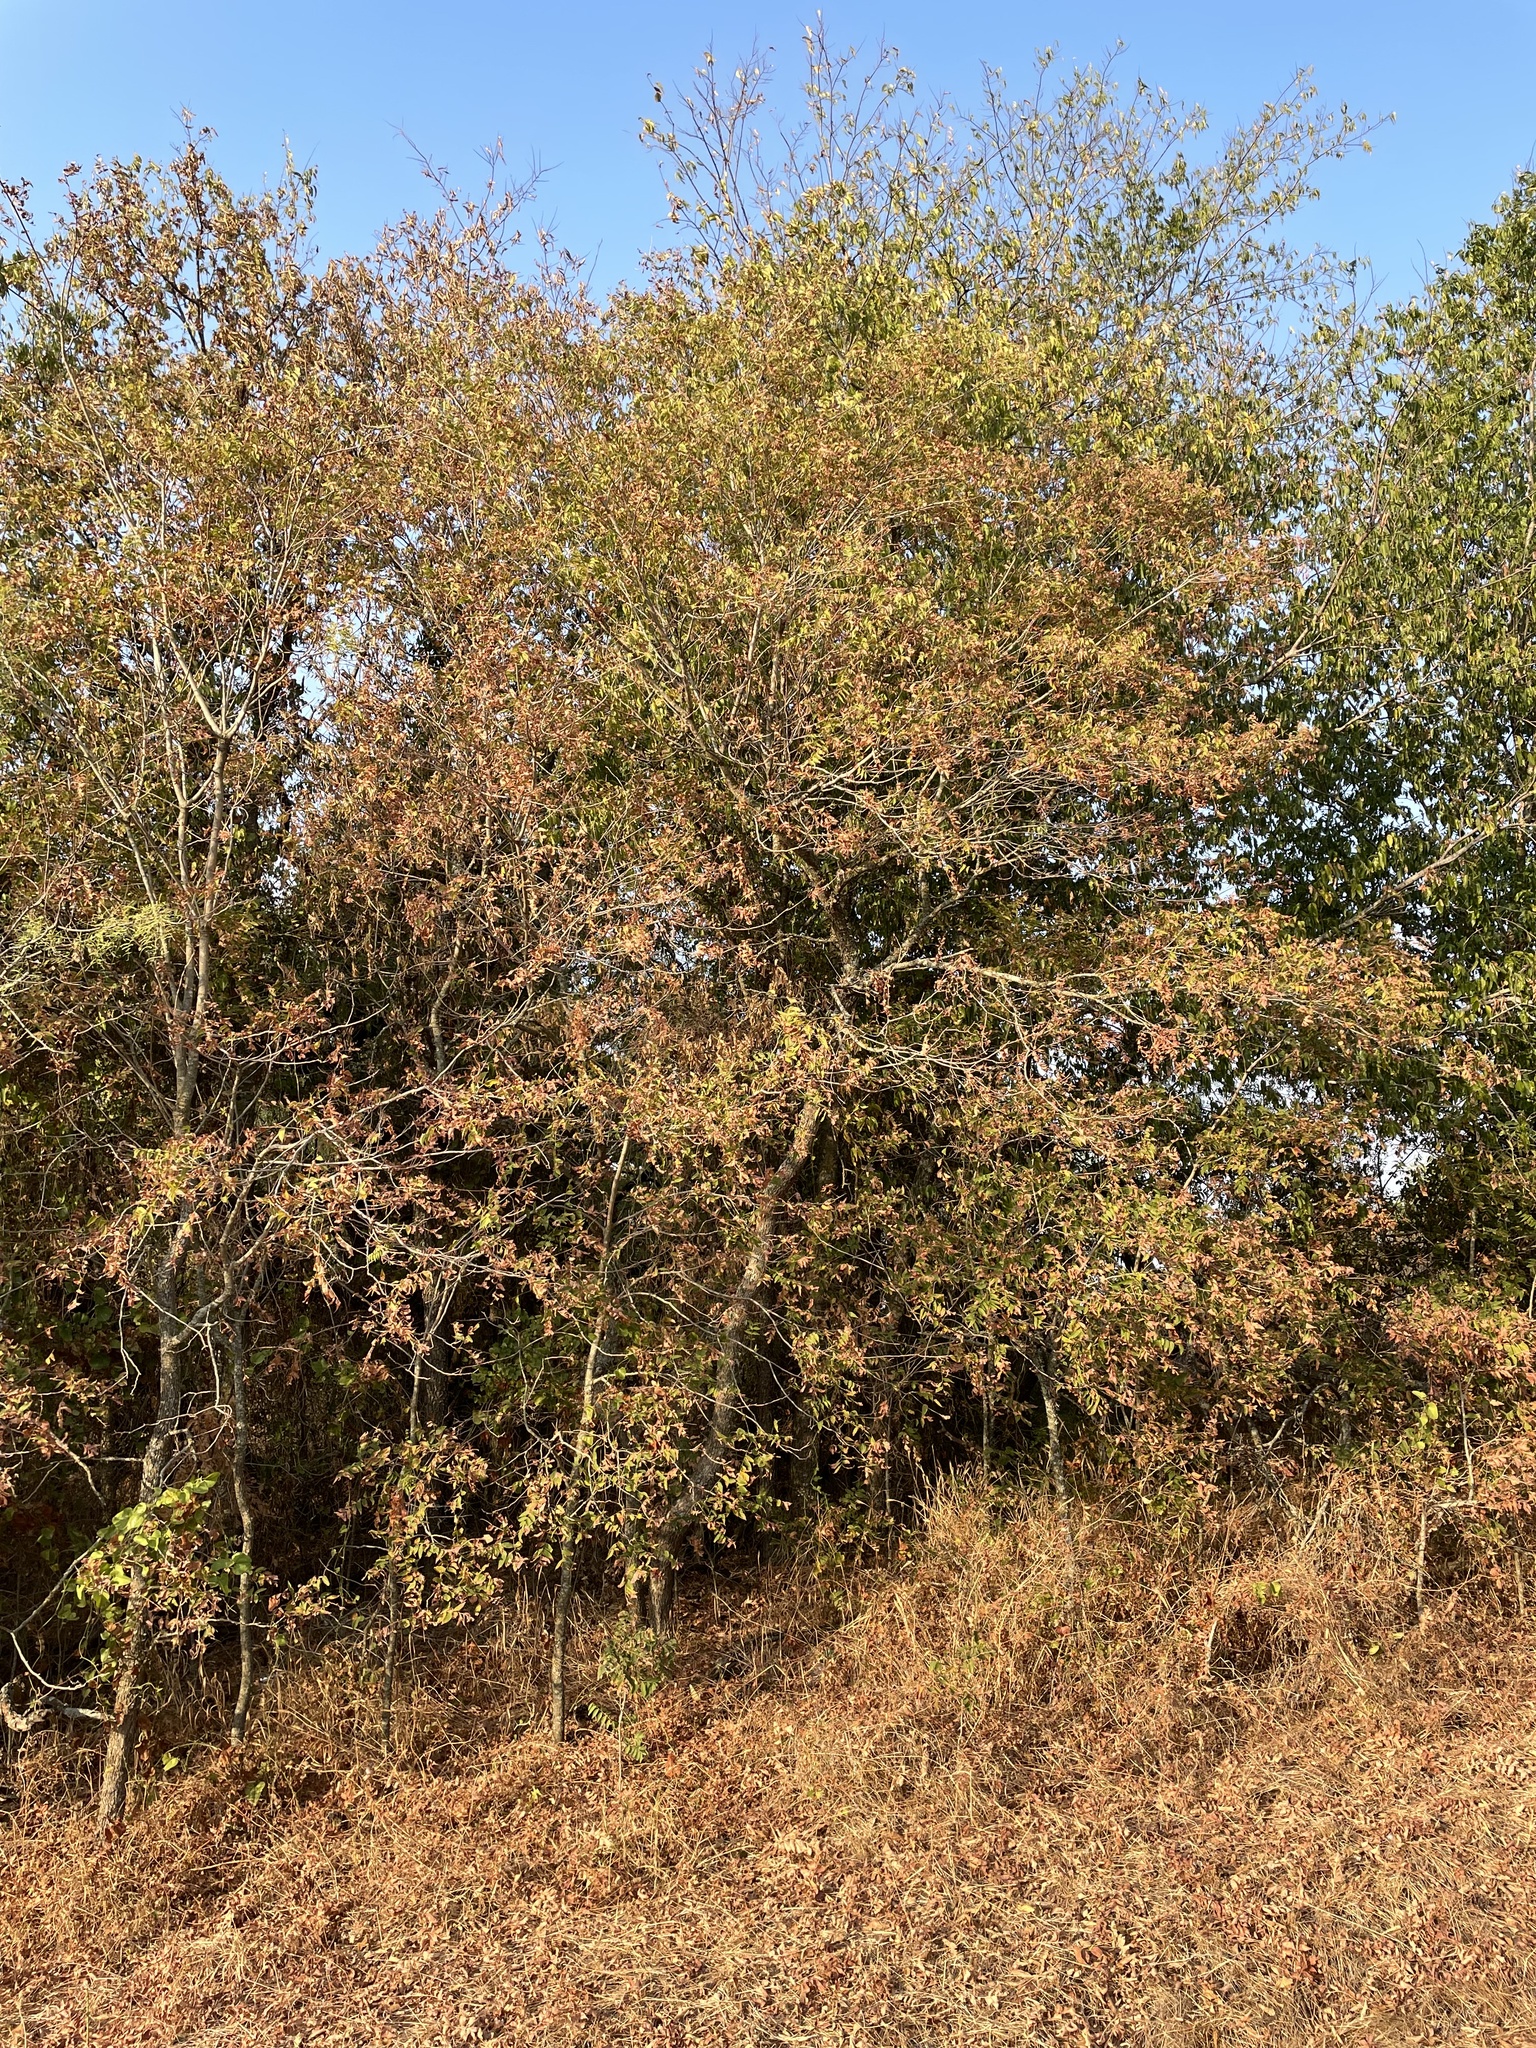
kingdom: Plantae
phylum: Tracheophyta
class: Magnoliopsida
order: Sapindales
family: Sapindaceae
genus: Sapindus
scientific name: Sapindus drummondii
